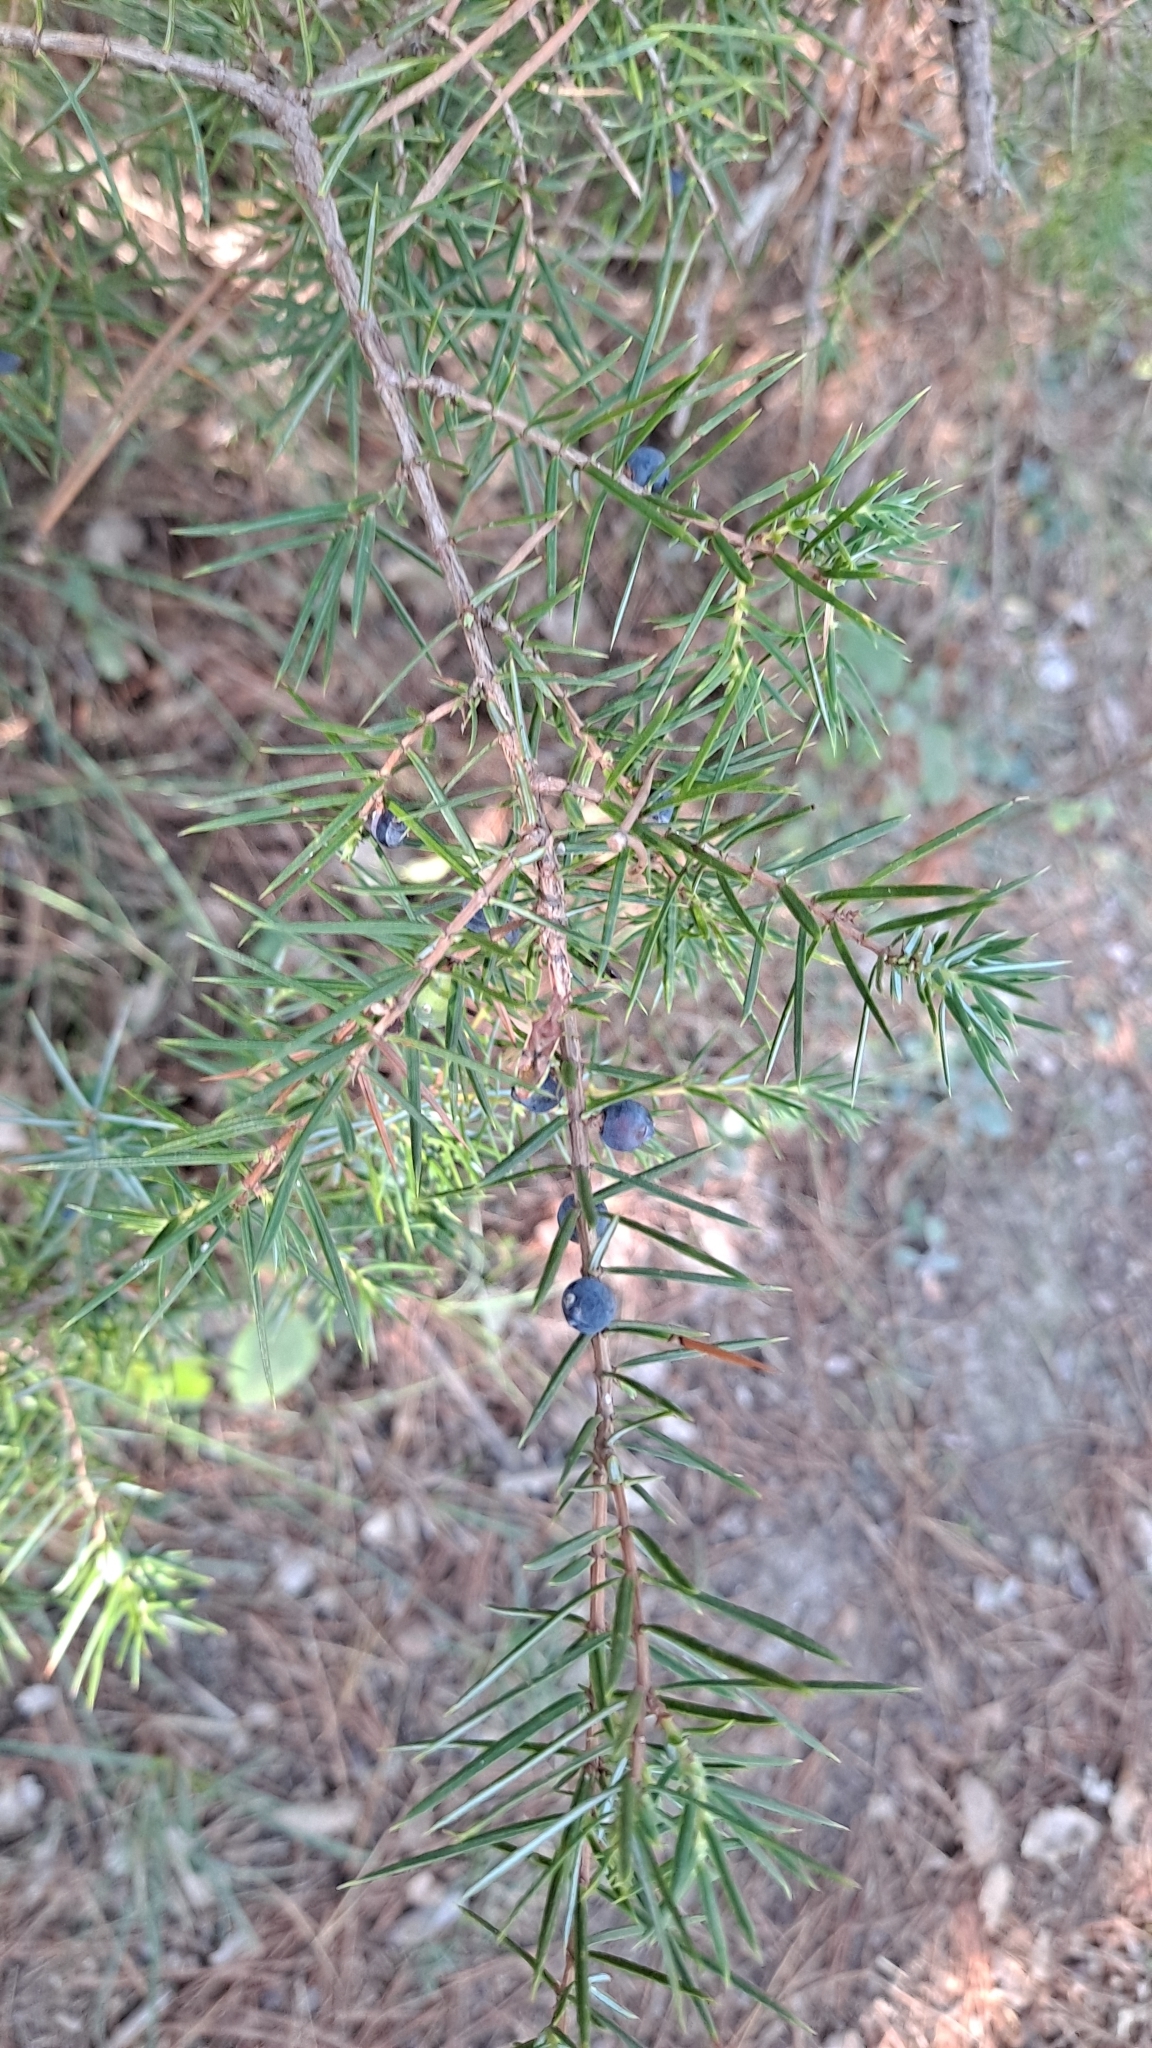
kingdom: Plantae
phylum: Tracheophyta
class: Pinopsida
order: Pinales
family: Cupressaceae
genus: Juniperus
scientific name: Juniperus communis
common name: Common juniper
